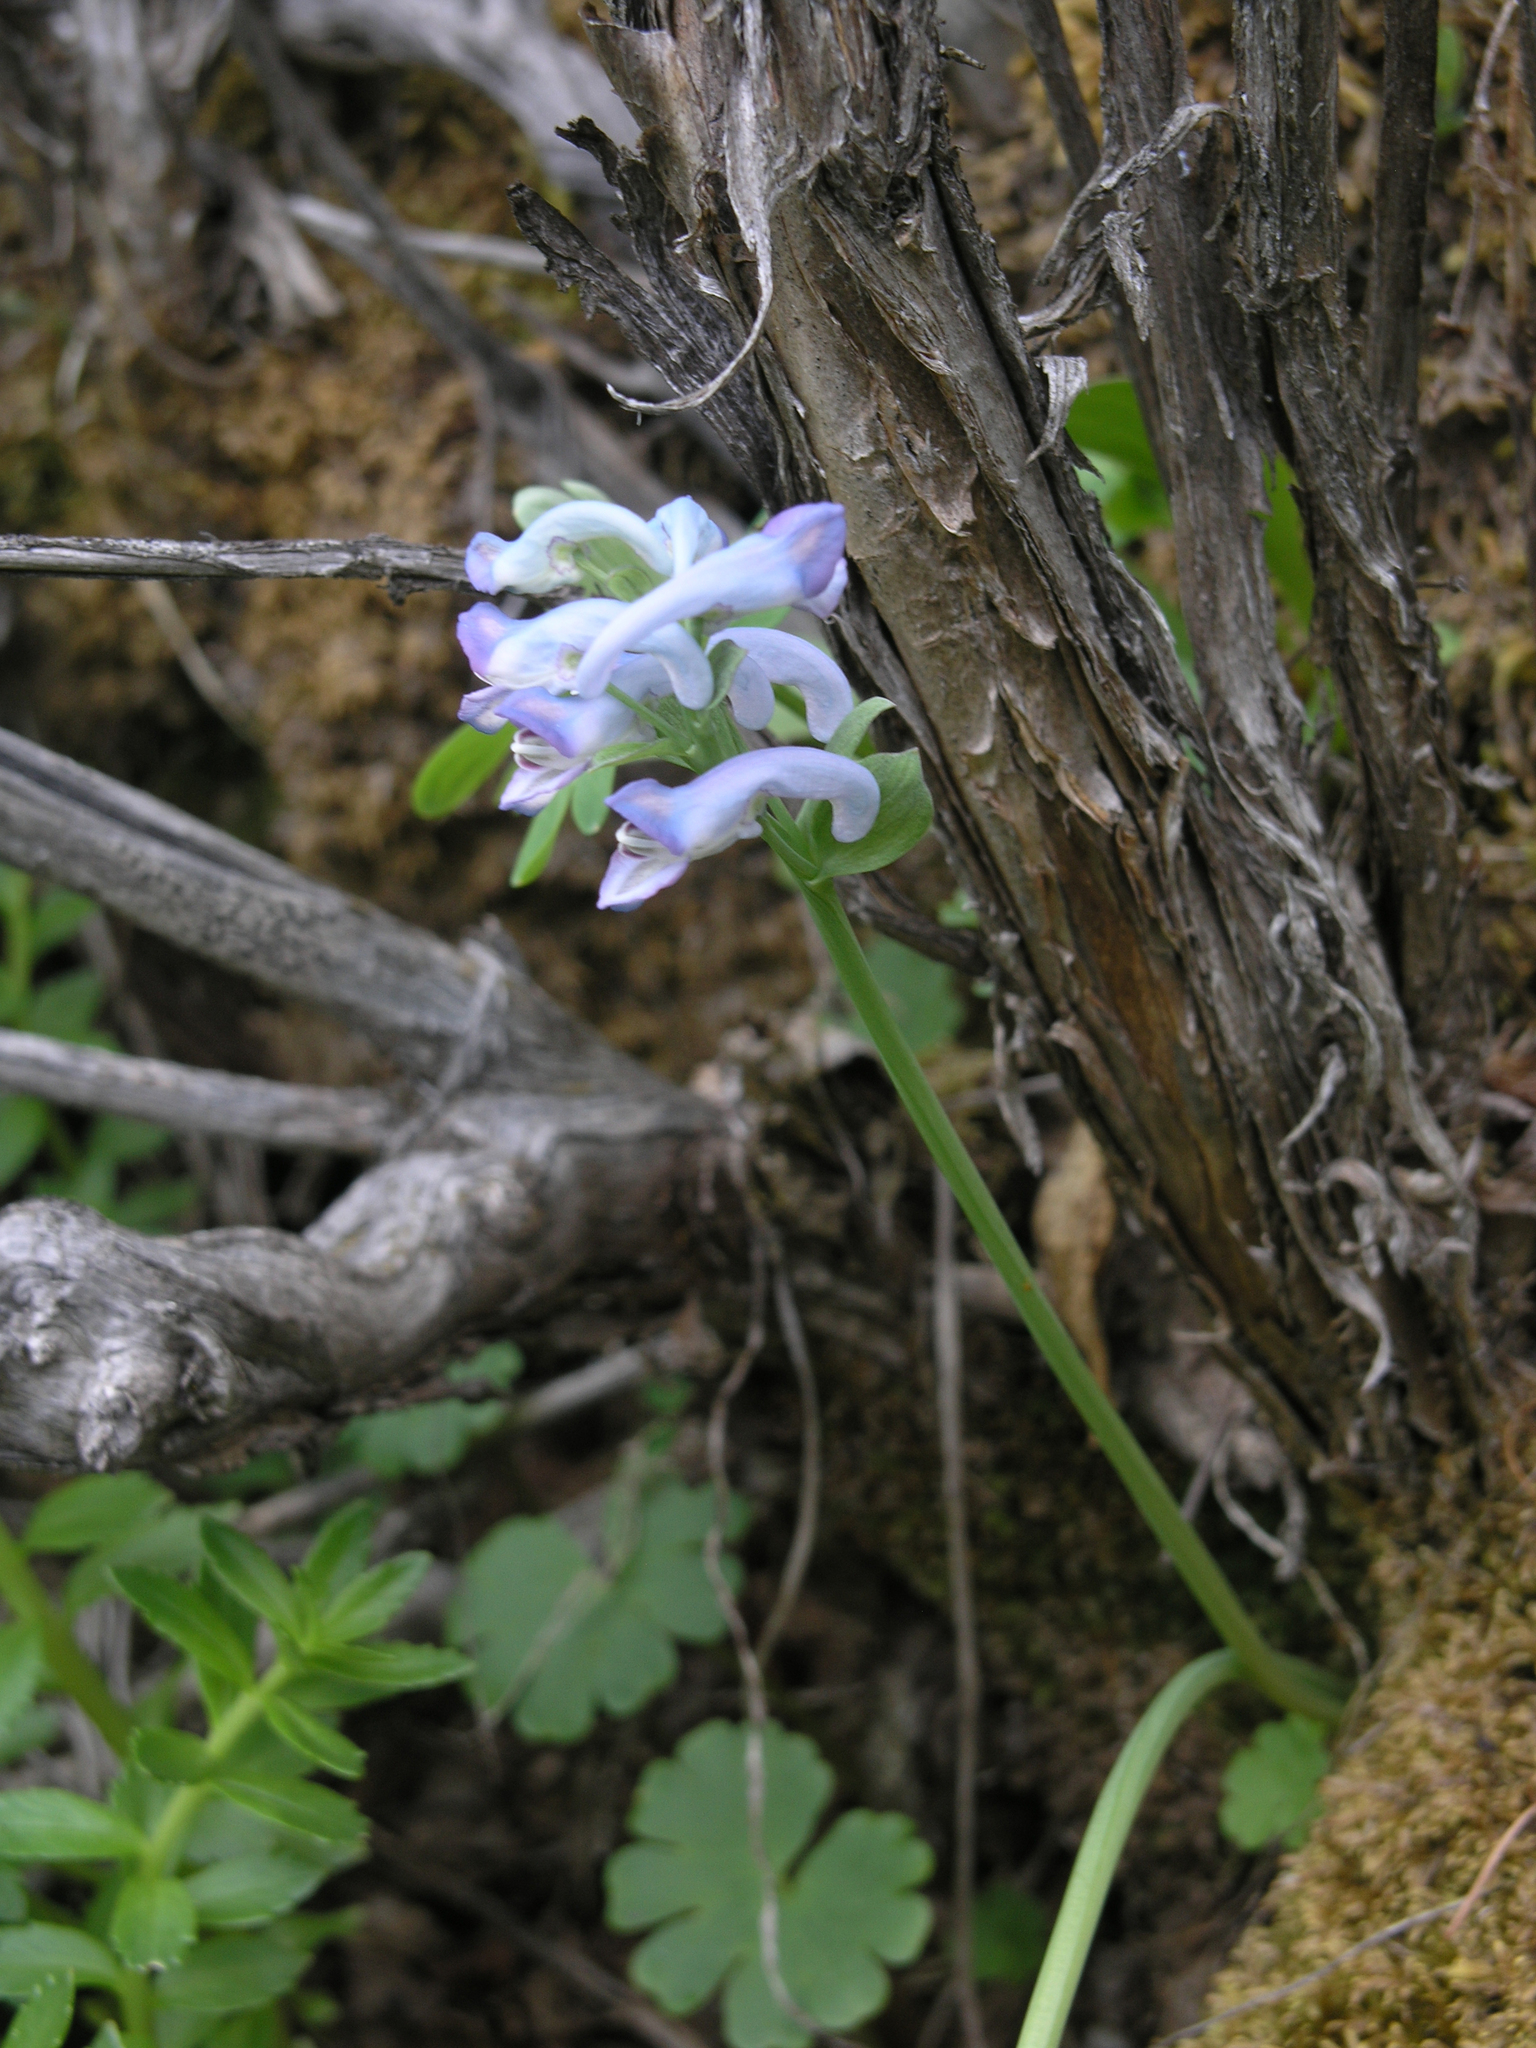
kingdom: Plantae
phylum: Tracheophyta
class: Magnoliopsida
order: Ranunculales
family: Papaveraceae
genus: Corydalis
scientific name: Corydalis pauciflora
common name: Blue corydalis
